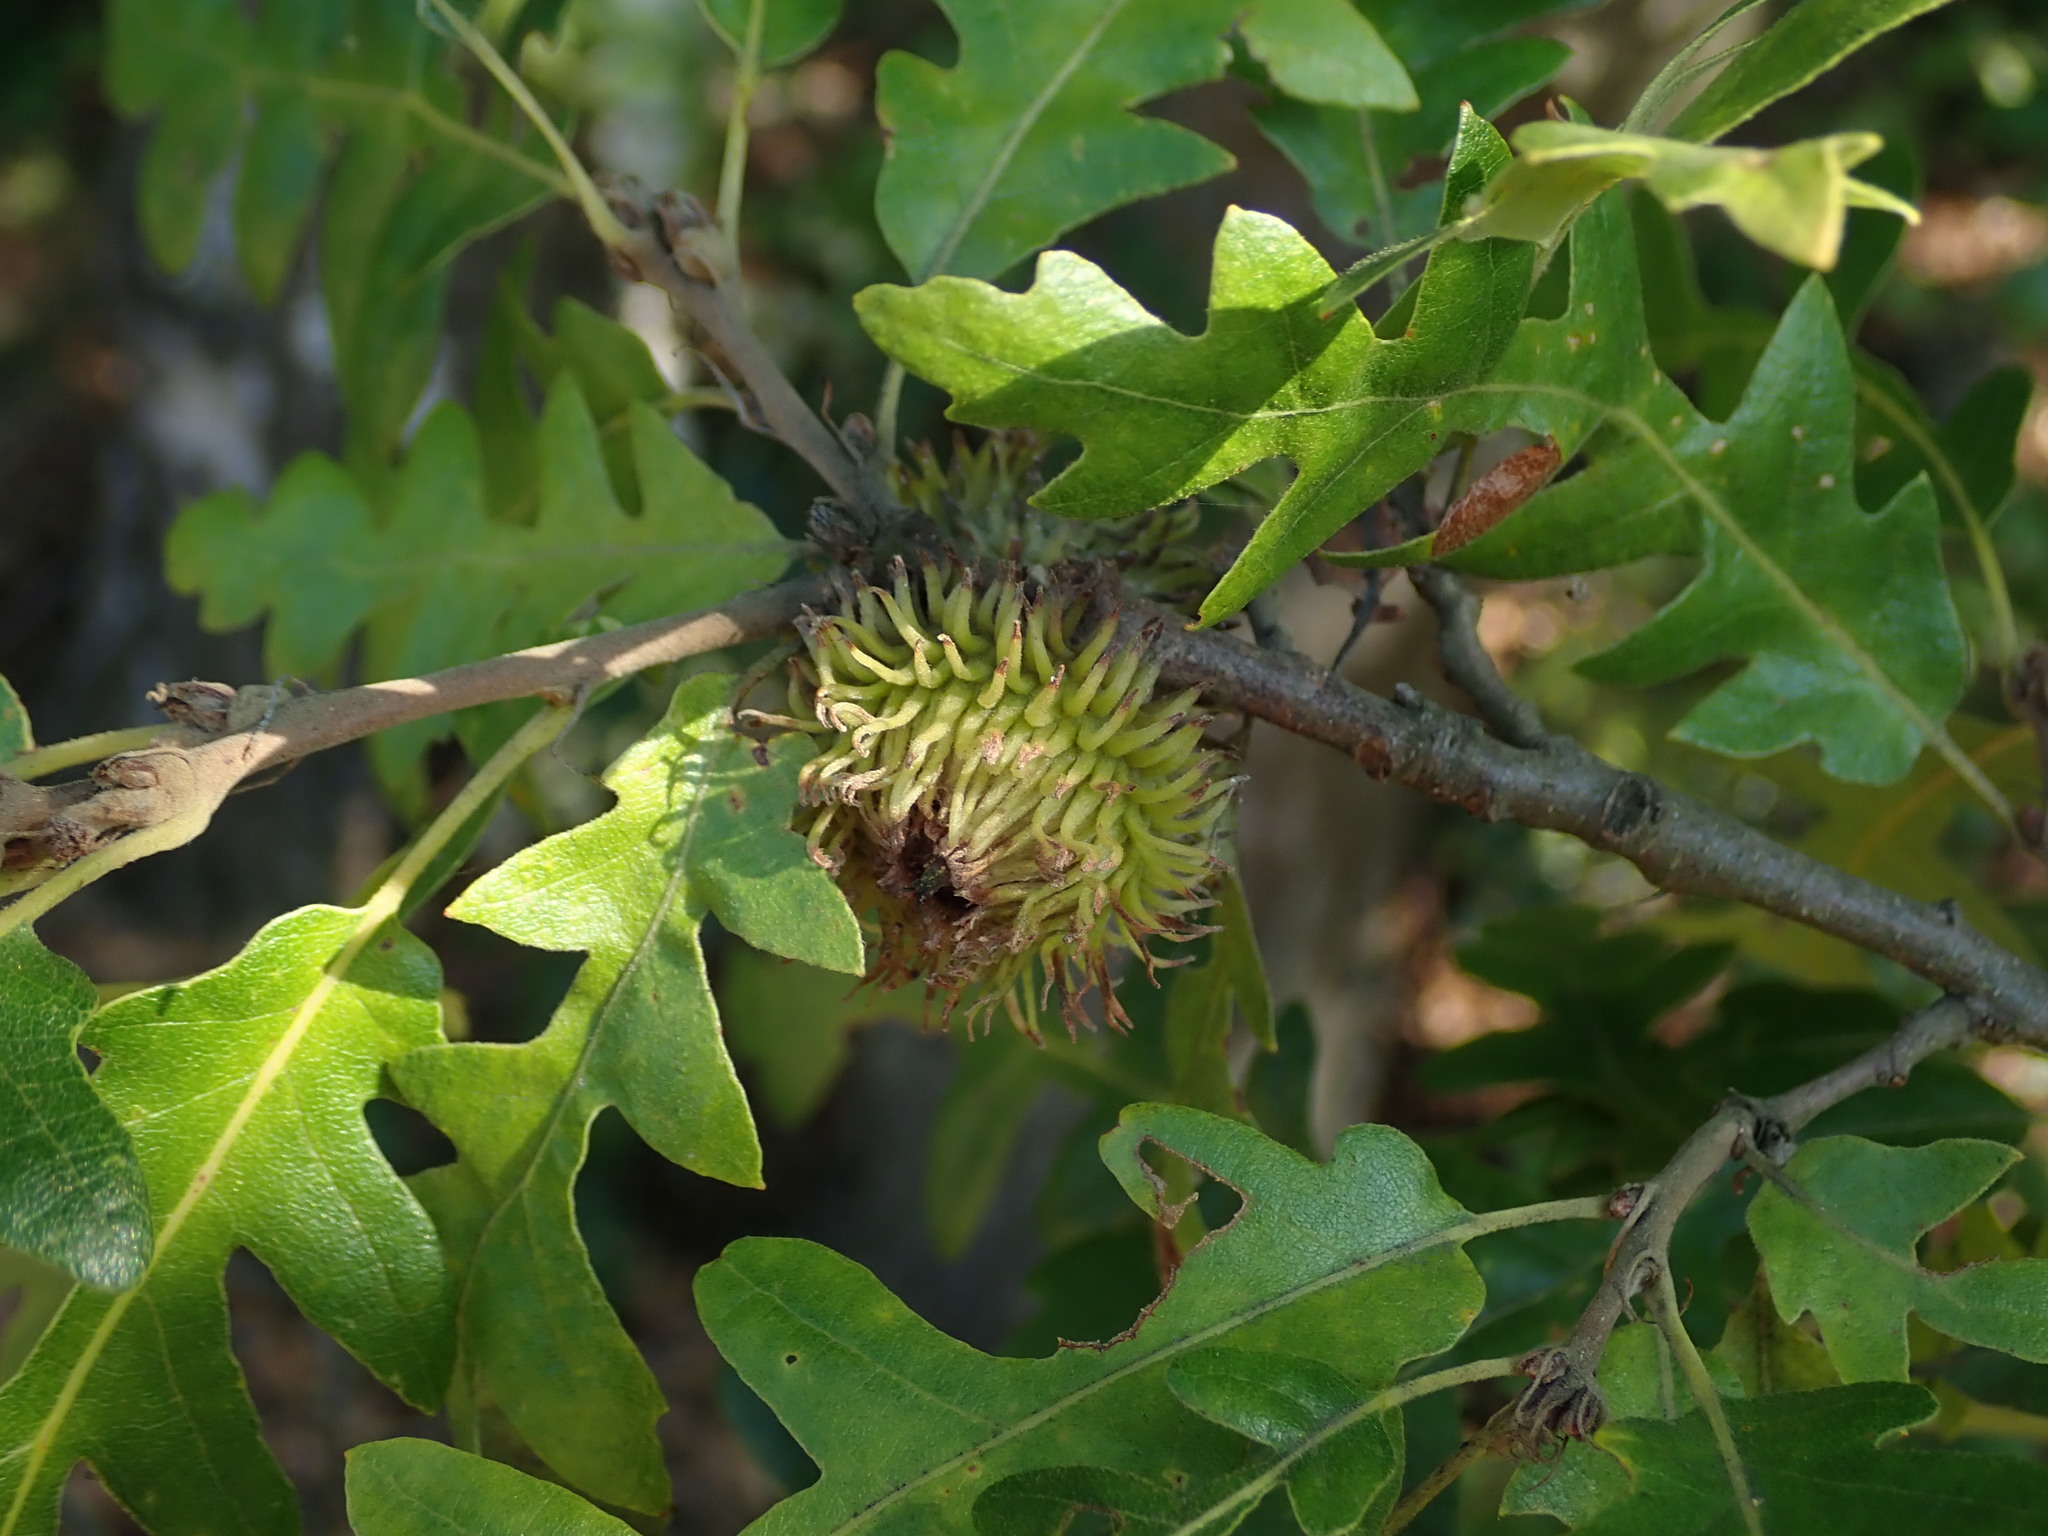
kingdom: Plantae
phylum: Tracheophyta
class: Magnoliopsida
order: Fagales
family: Fagaceae
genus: Quercus
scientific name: Quercus cerris
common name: Turkey oak
